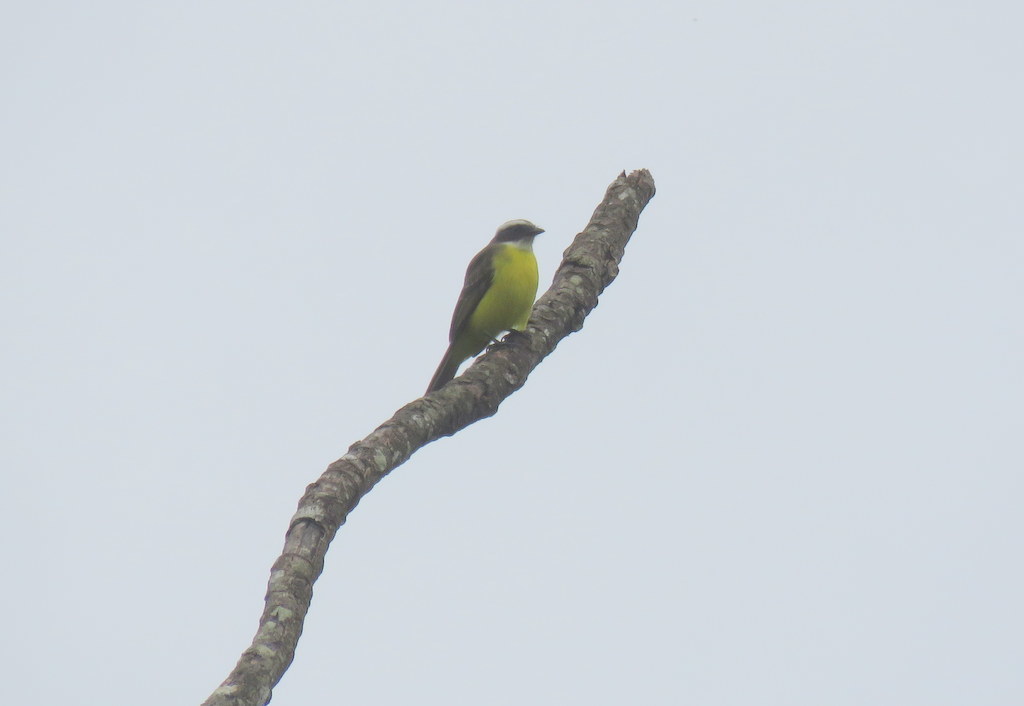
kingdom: Animalia
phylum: Chordata
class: Aves
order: Passeriformes
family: Tyrannidae
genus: Myiozetetes
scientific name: Myiozetetes similis
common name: Social flycatcher
